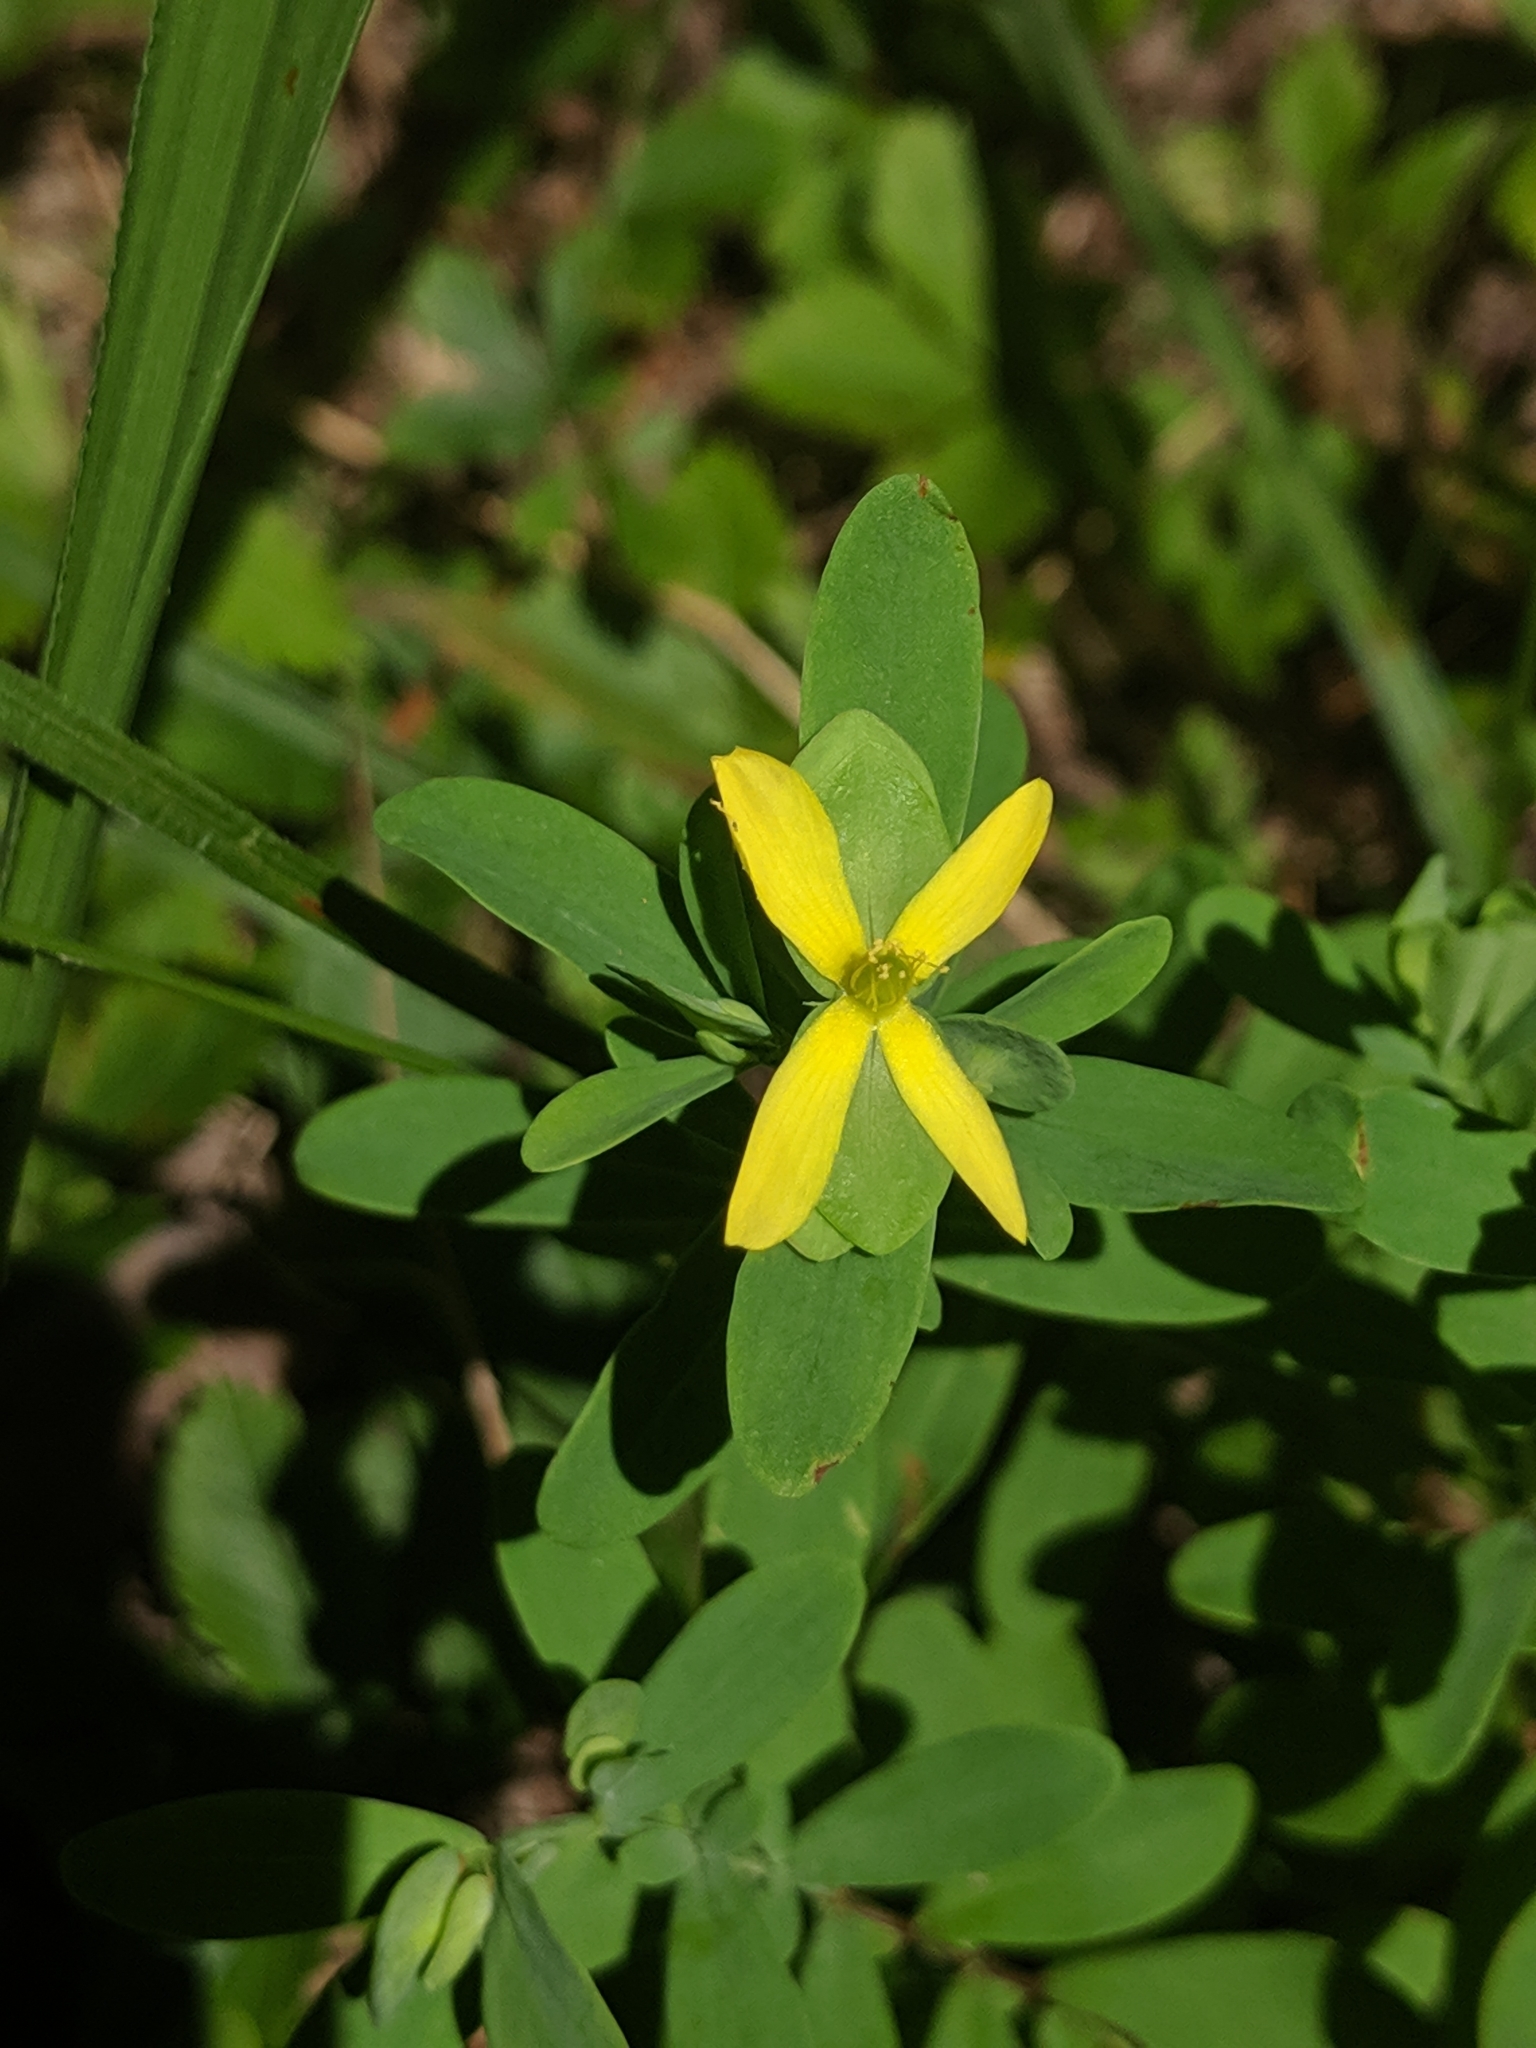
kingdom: Plantae
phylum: Tracheophyta
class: Magnoliopsida
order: Malpighiales
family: Hypericaceae
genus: Hypericum
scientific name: Hypericum hypericoides
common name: St. andrew's cross
